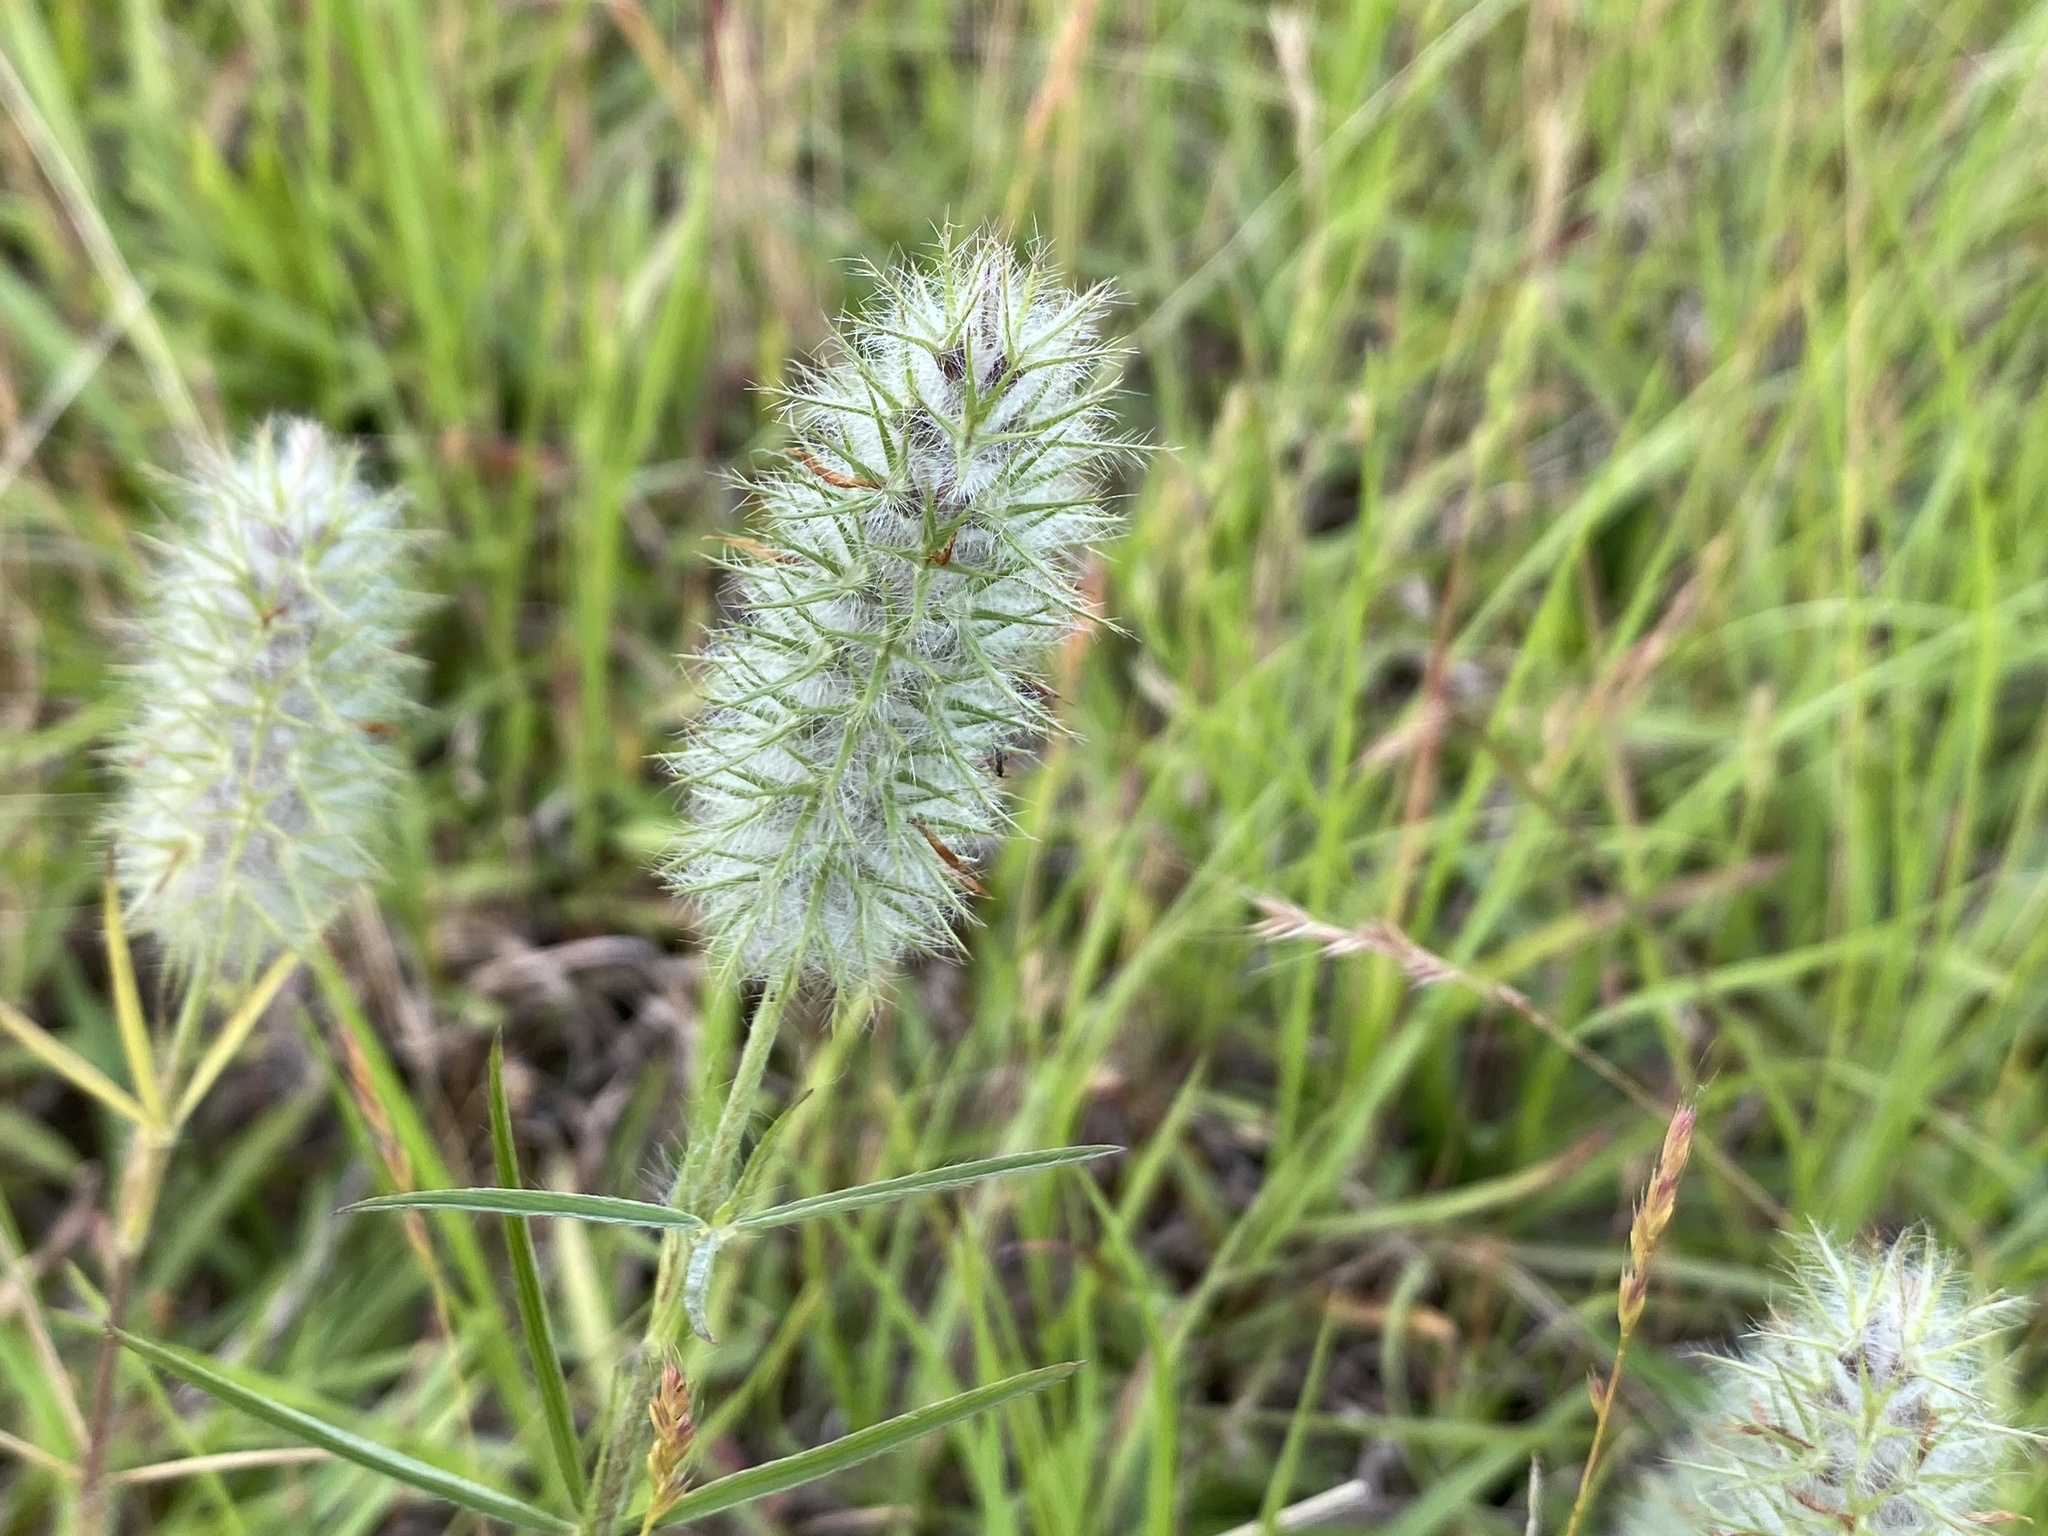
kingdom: Plantae
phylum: Tracheophyta
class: Magnoliopsida
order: Fabales
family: Fabaceae
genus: Trifolium
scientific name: Trifolium angustifolium
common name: Narrow clover
